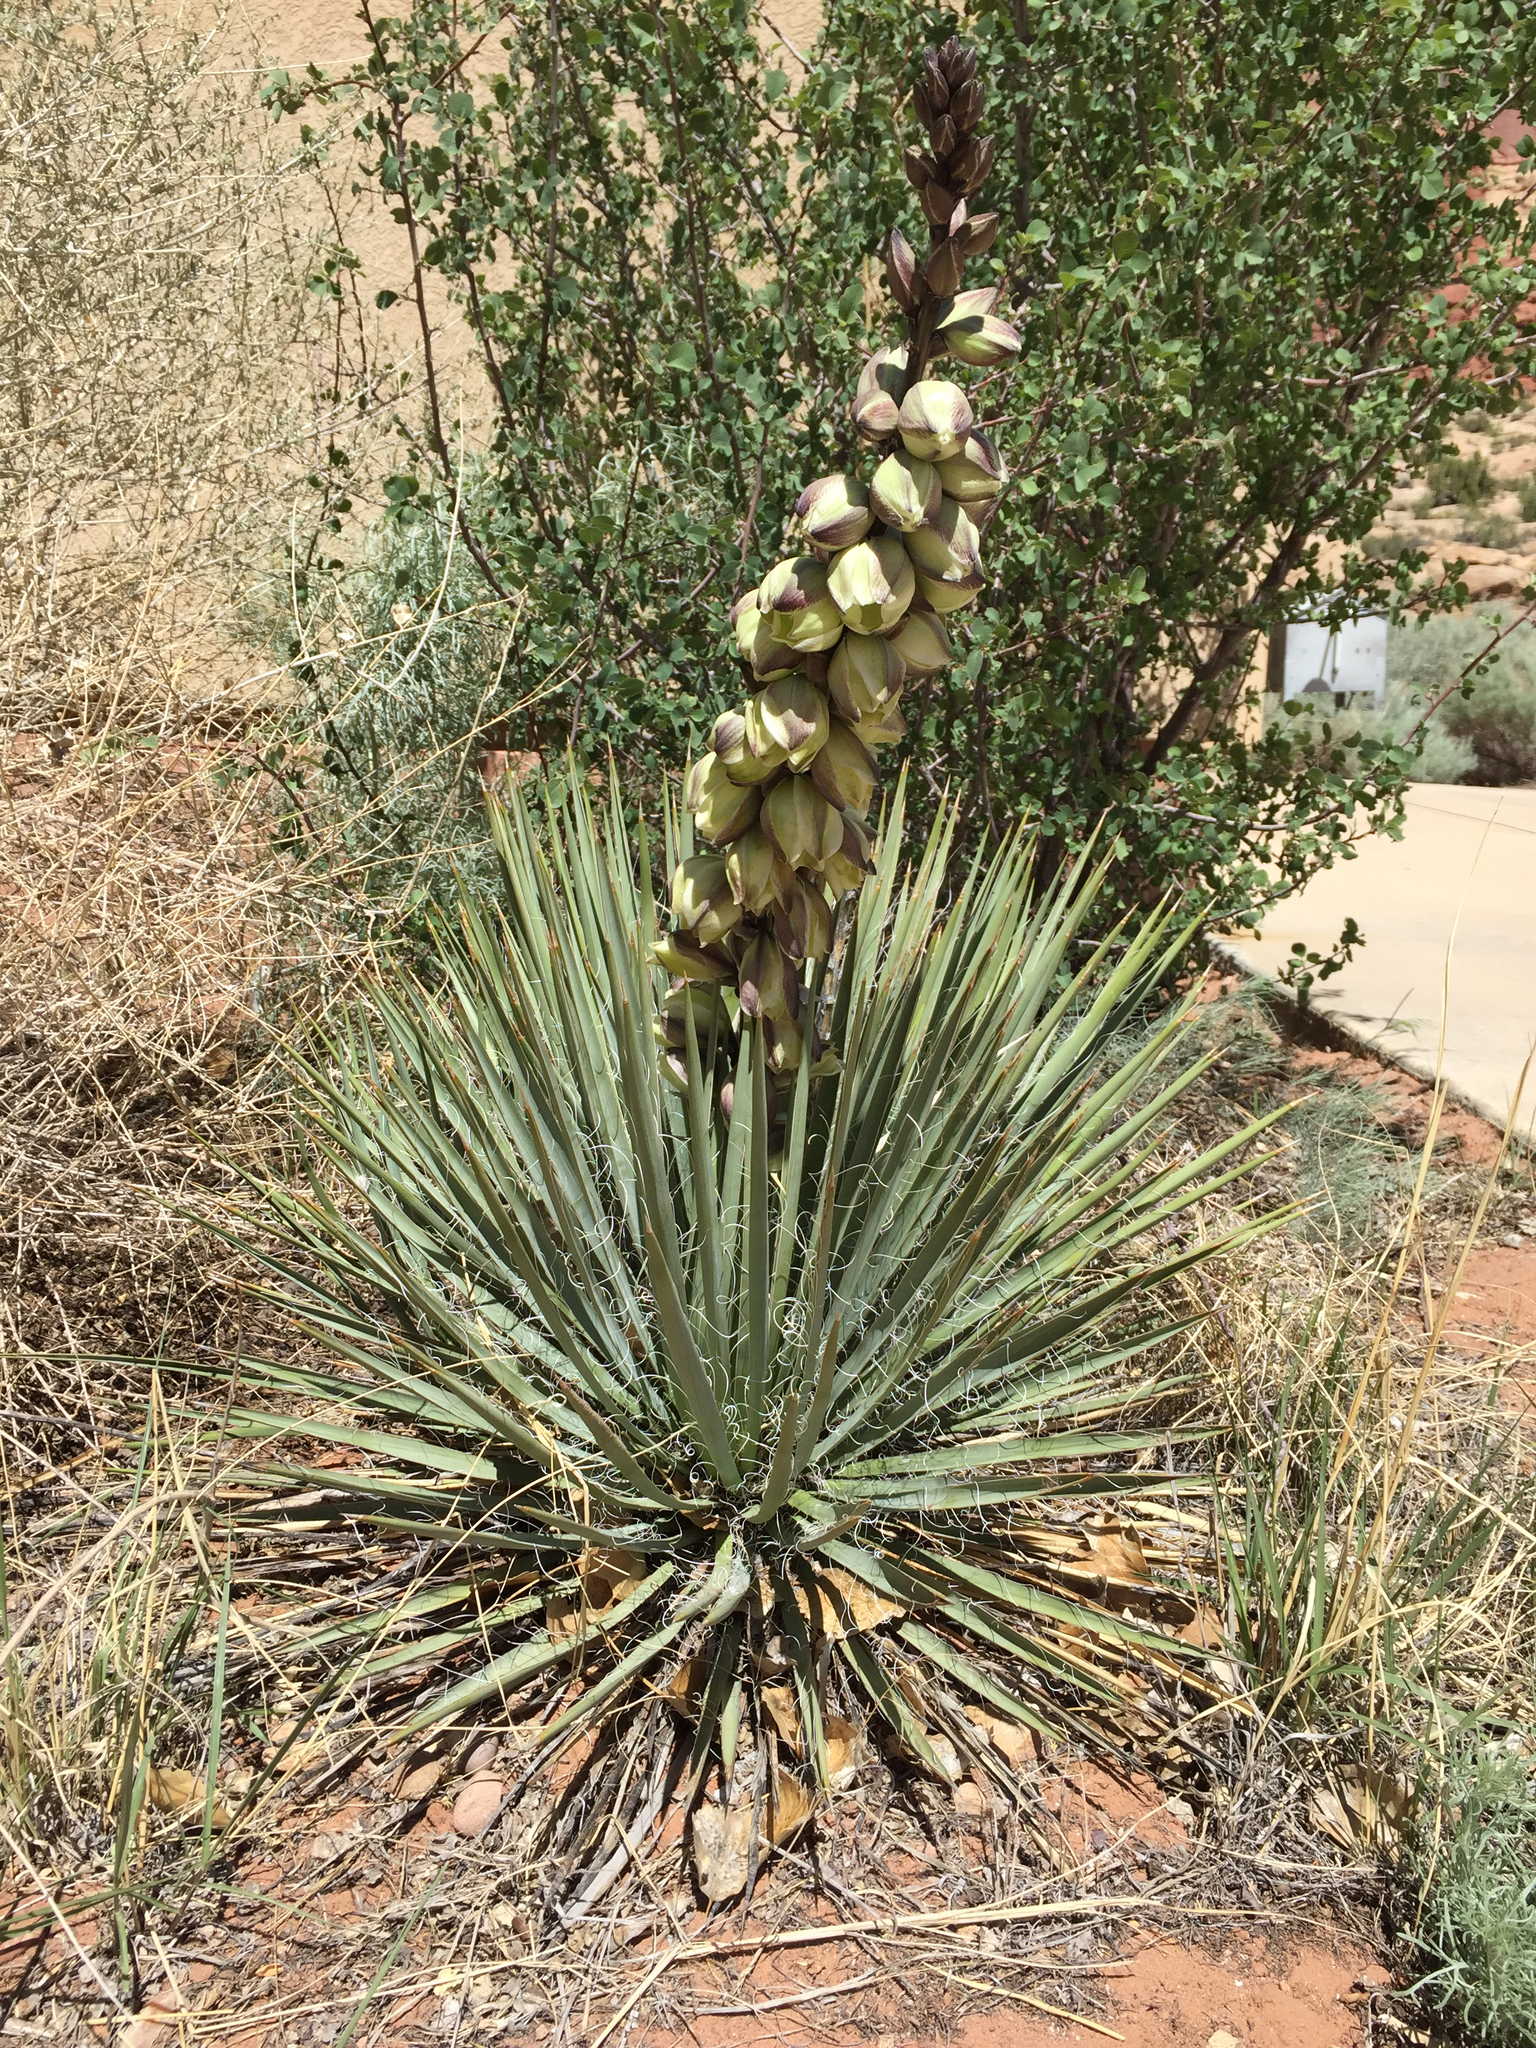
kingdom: Plantae
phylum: Tracheophyta
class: Liliopsida
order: Asparagales
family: Asparagaceae
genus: Yucca
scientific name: Yucca harrimaniae
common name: Harriman's yucca
